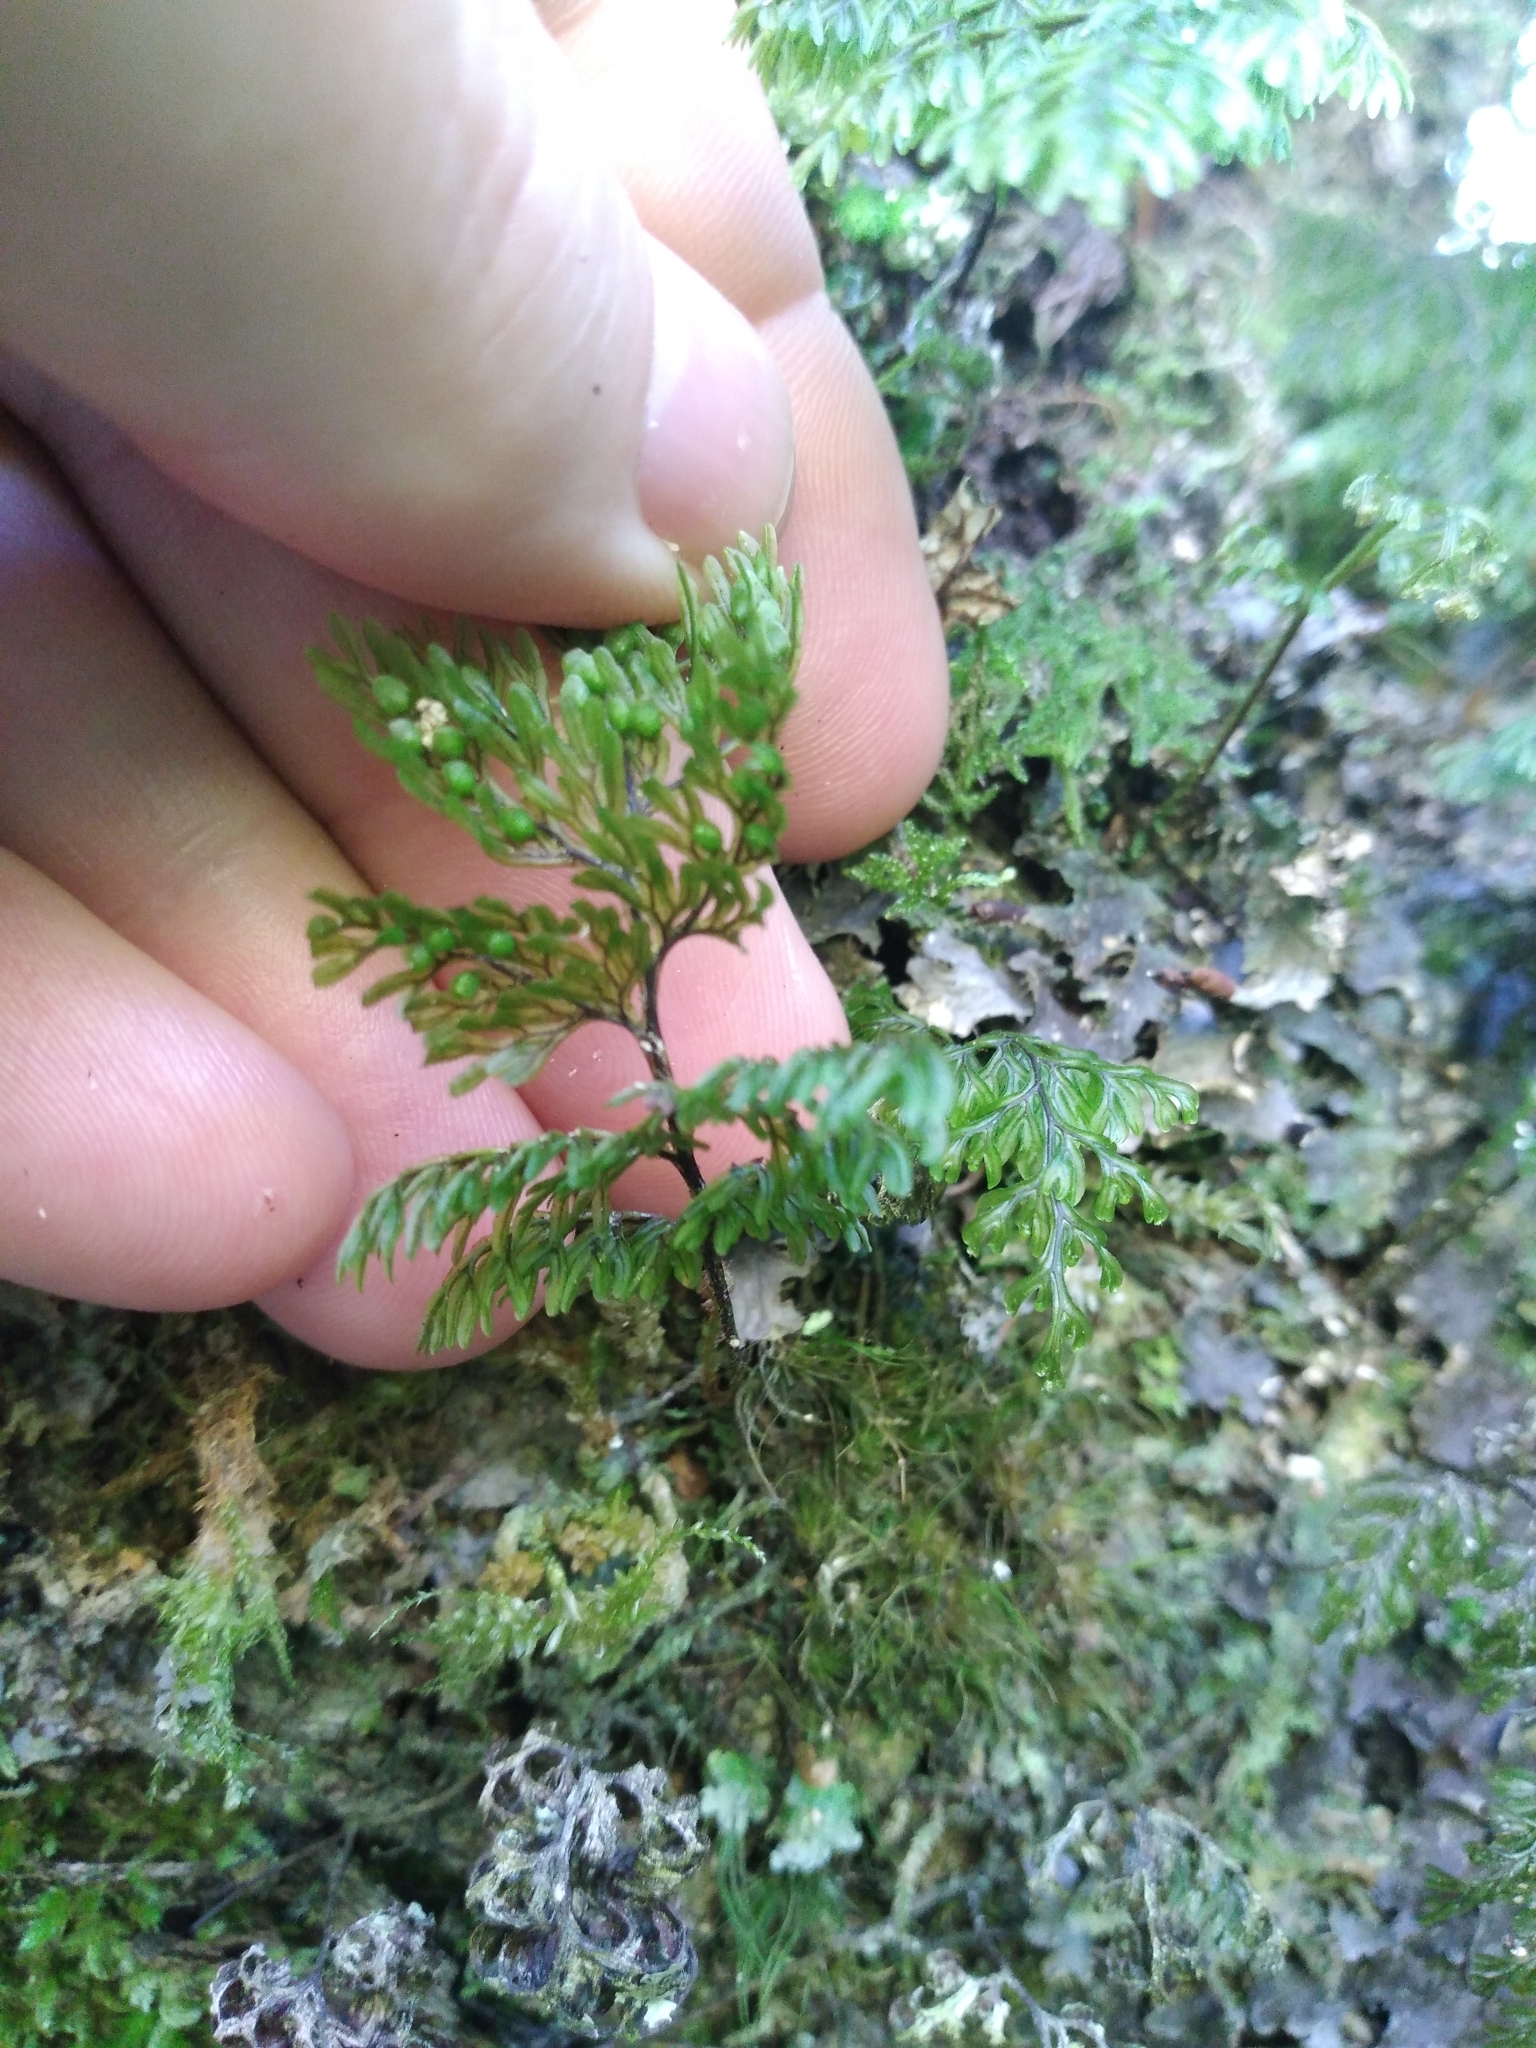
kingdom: Plantae
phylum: Tracheophyta
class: Polypodiopsida
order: Hymenophyllales
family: Hymenophyllaceae
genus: Hymenophyllum
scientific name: Hymenophyllum villosum
